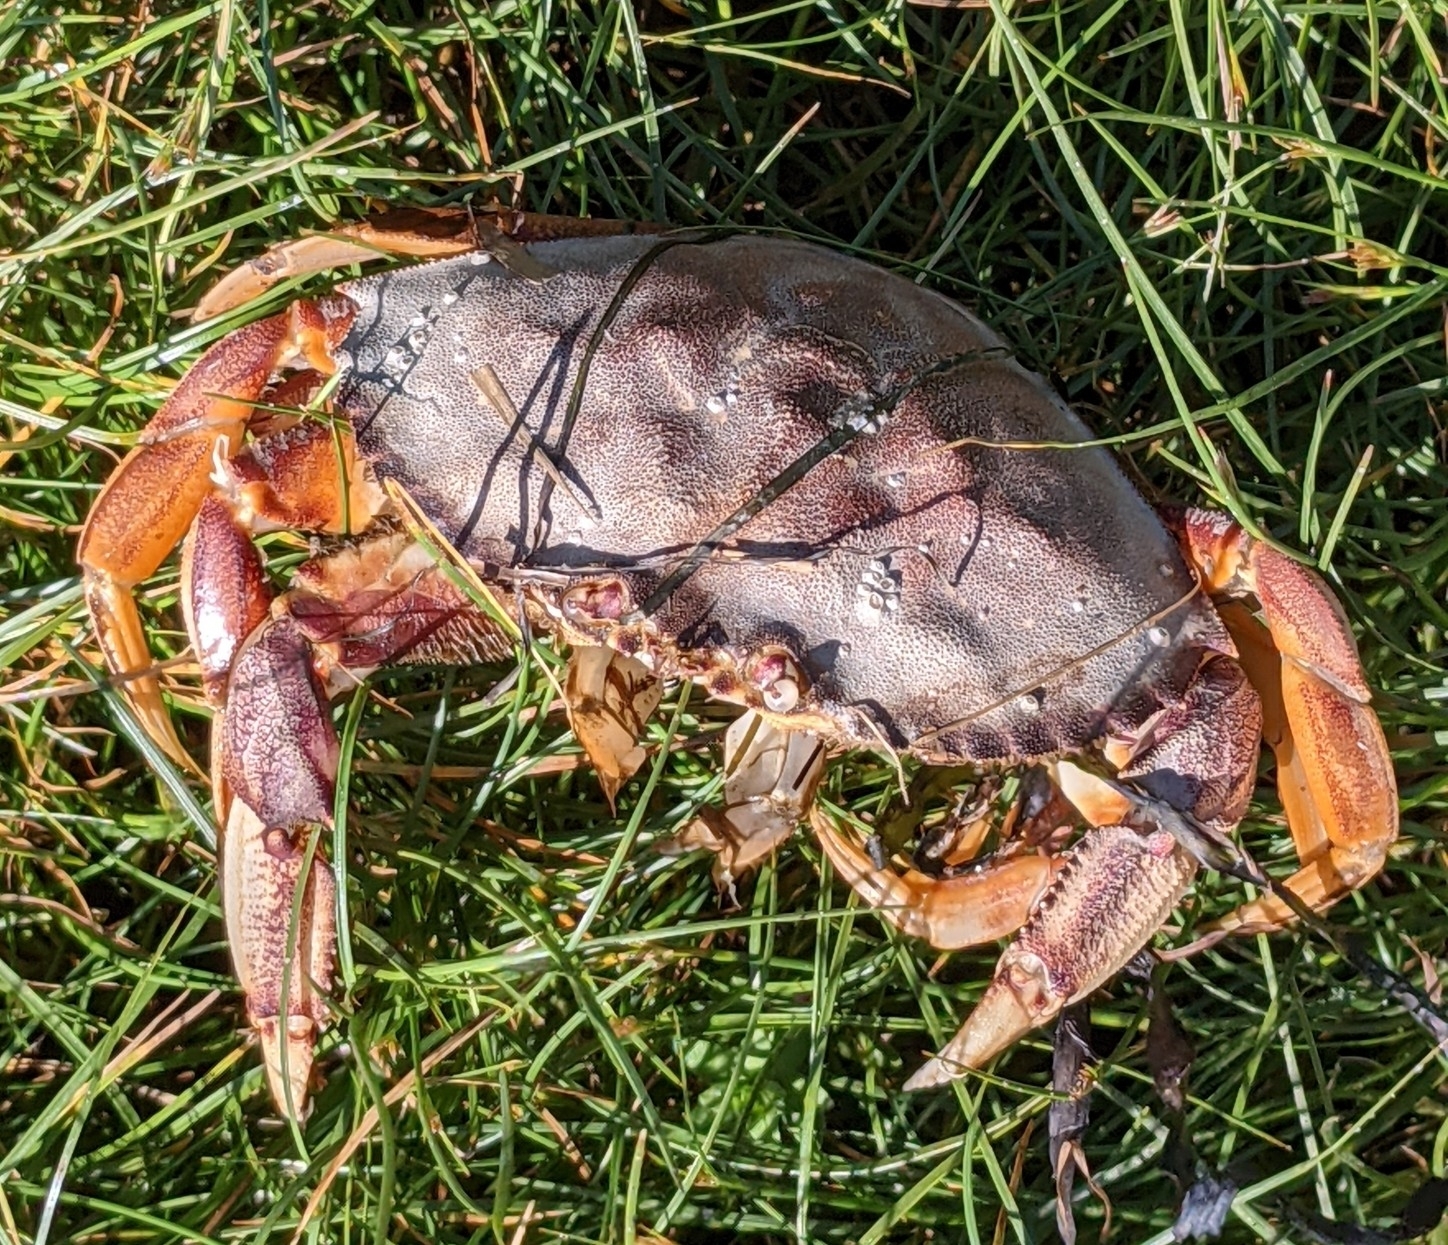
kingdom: Animalia
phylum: Arthropoda
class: Malacostraca
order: Decapoda
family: Cancridae
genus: Metacarcinus
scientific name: Metacarcinus magister
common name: Californian crab
